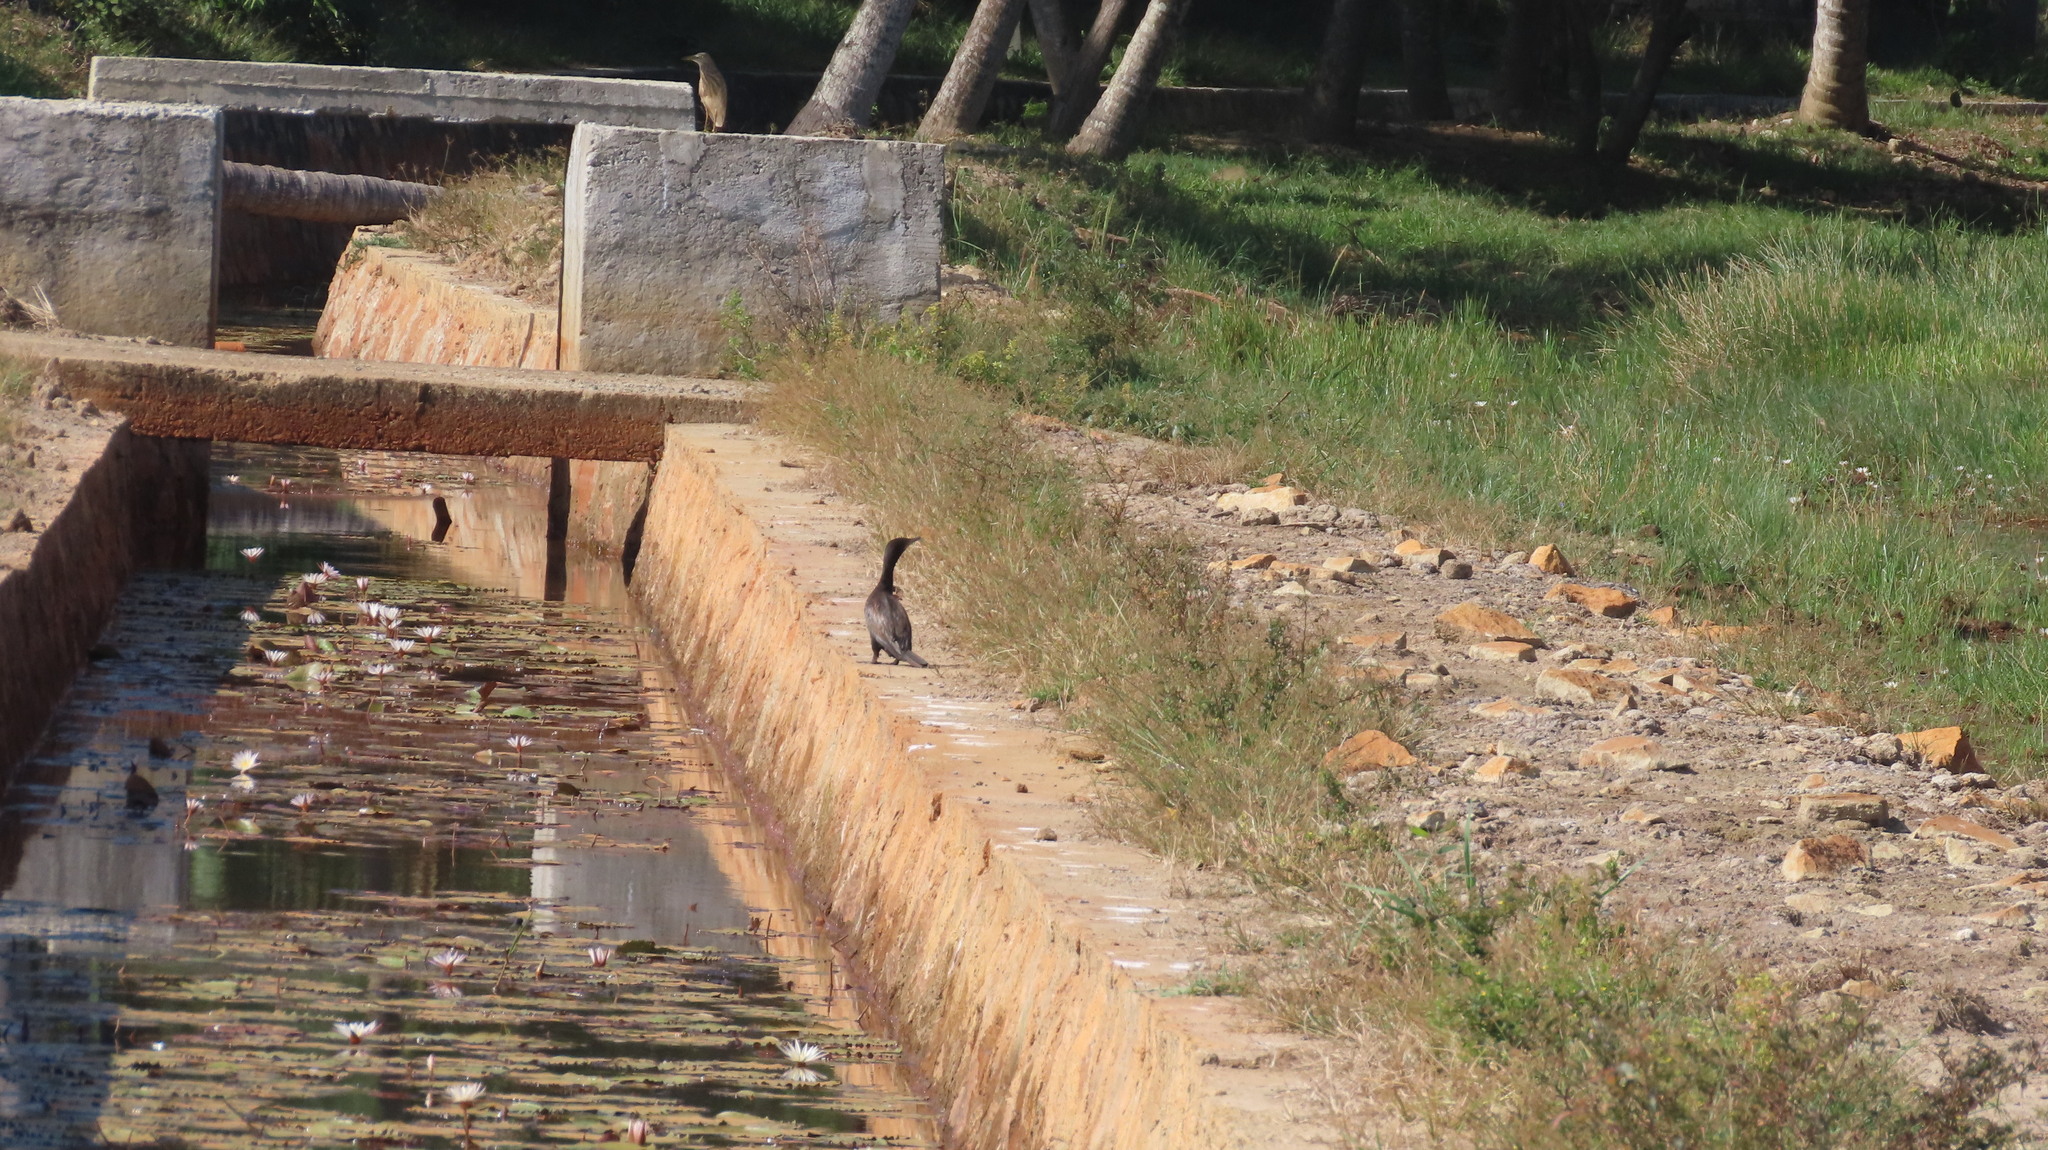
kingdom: Animalia
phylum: Chordata
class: Aves
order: Suliformes
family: Phalacrocoracidae
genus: Microcarbo
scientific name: Microcarbo niger
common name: Little cormorant
